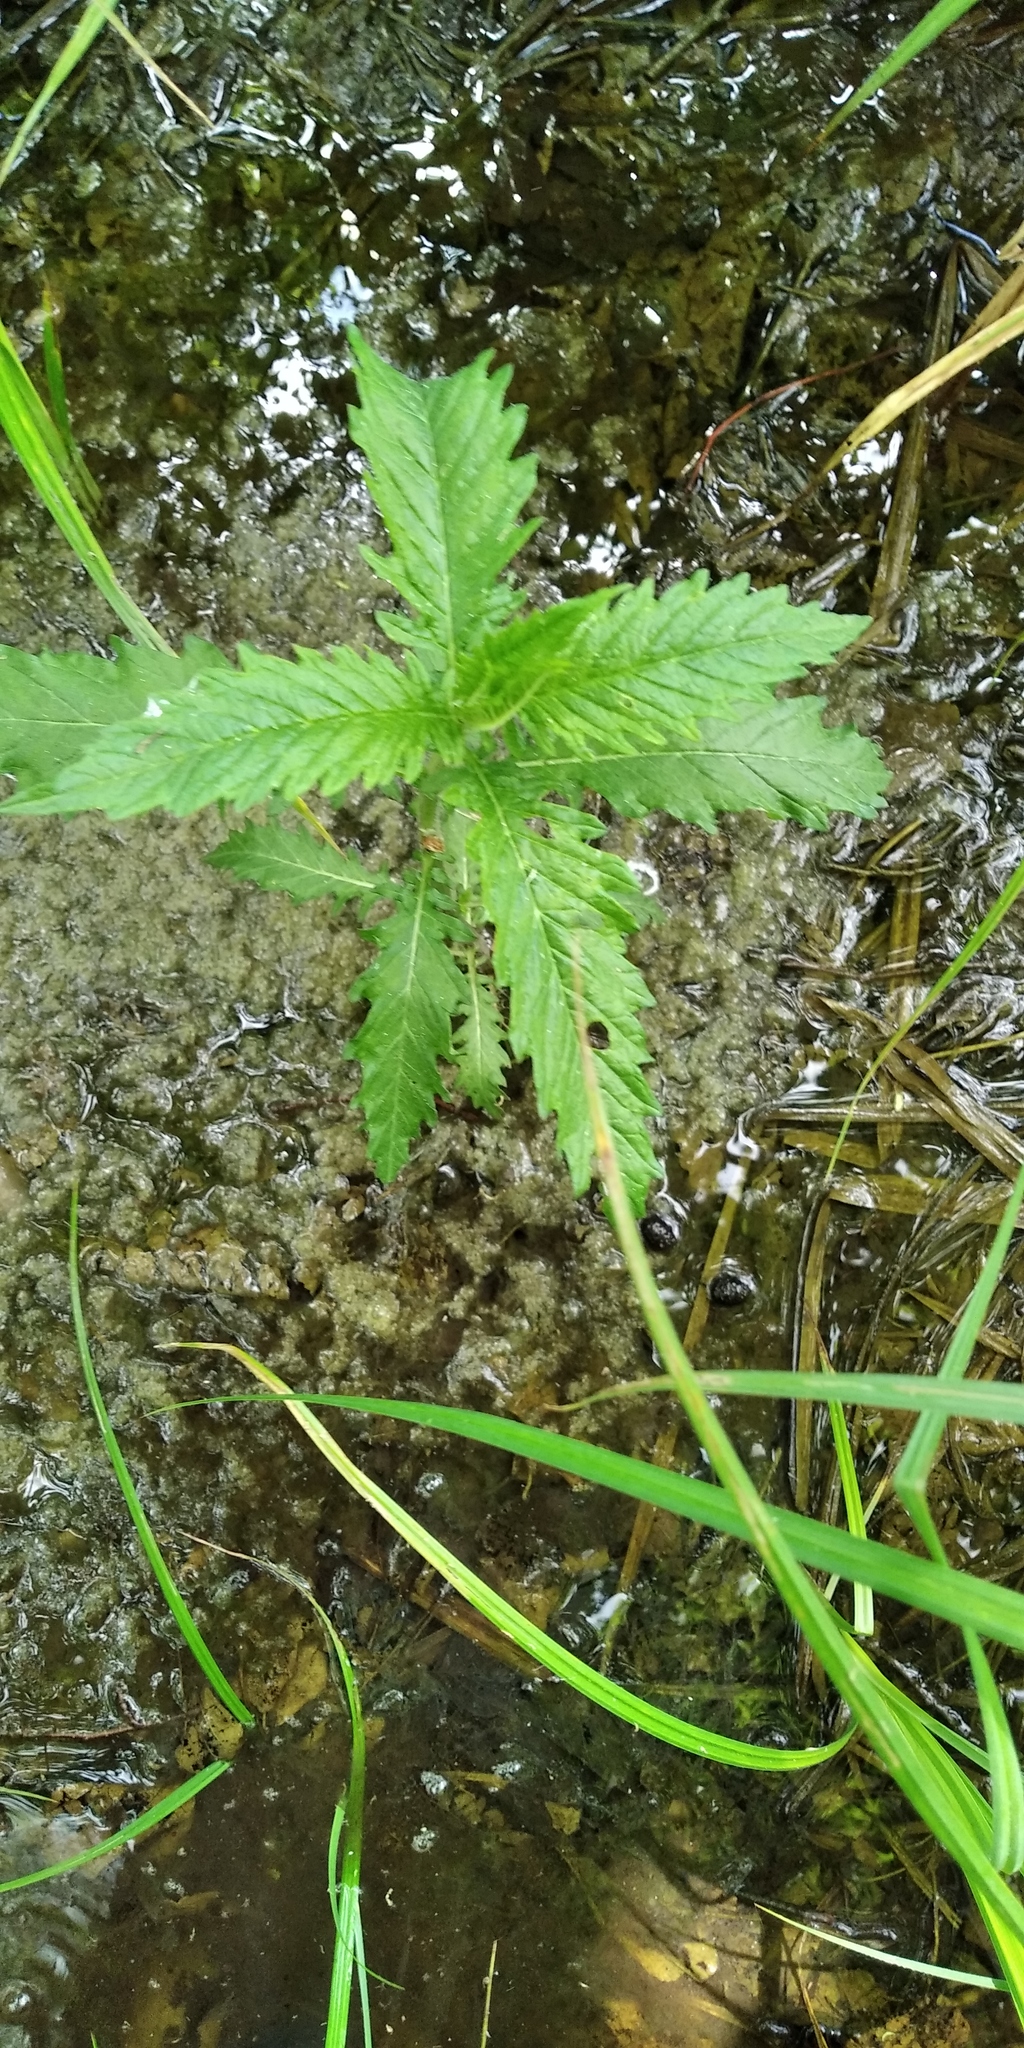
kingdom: Plantae
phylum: Tracheophyta
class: Magnoliopsida
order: Lamiales
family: Lamiaceae
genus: Lycopus
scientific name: Lycopus europaeus
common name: European bugleweed
